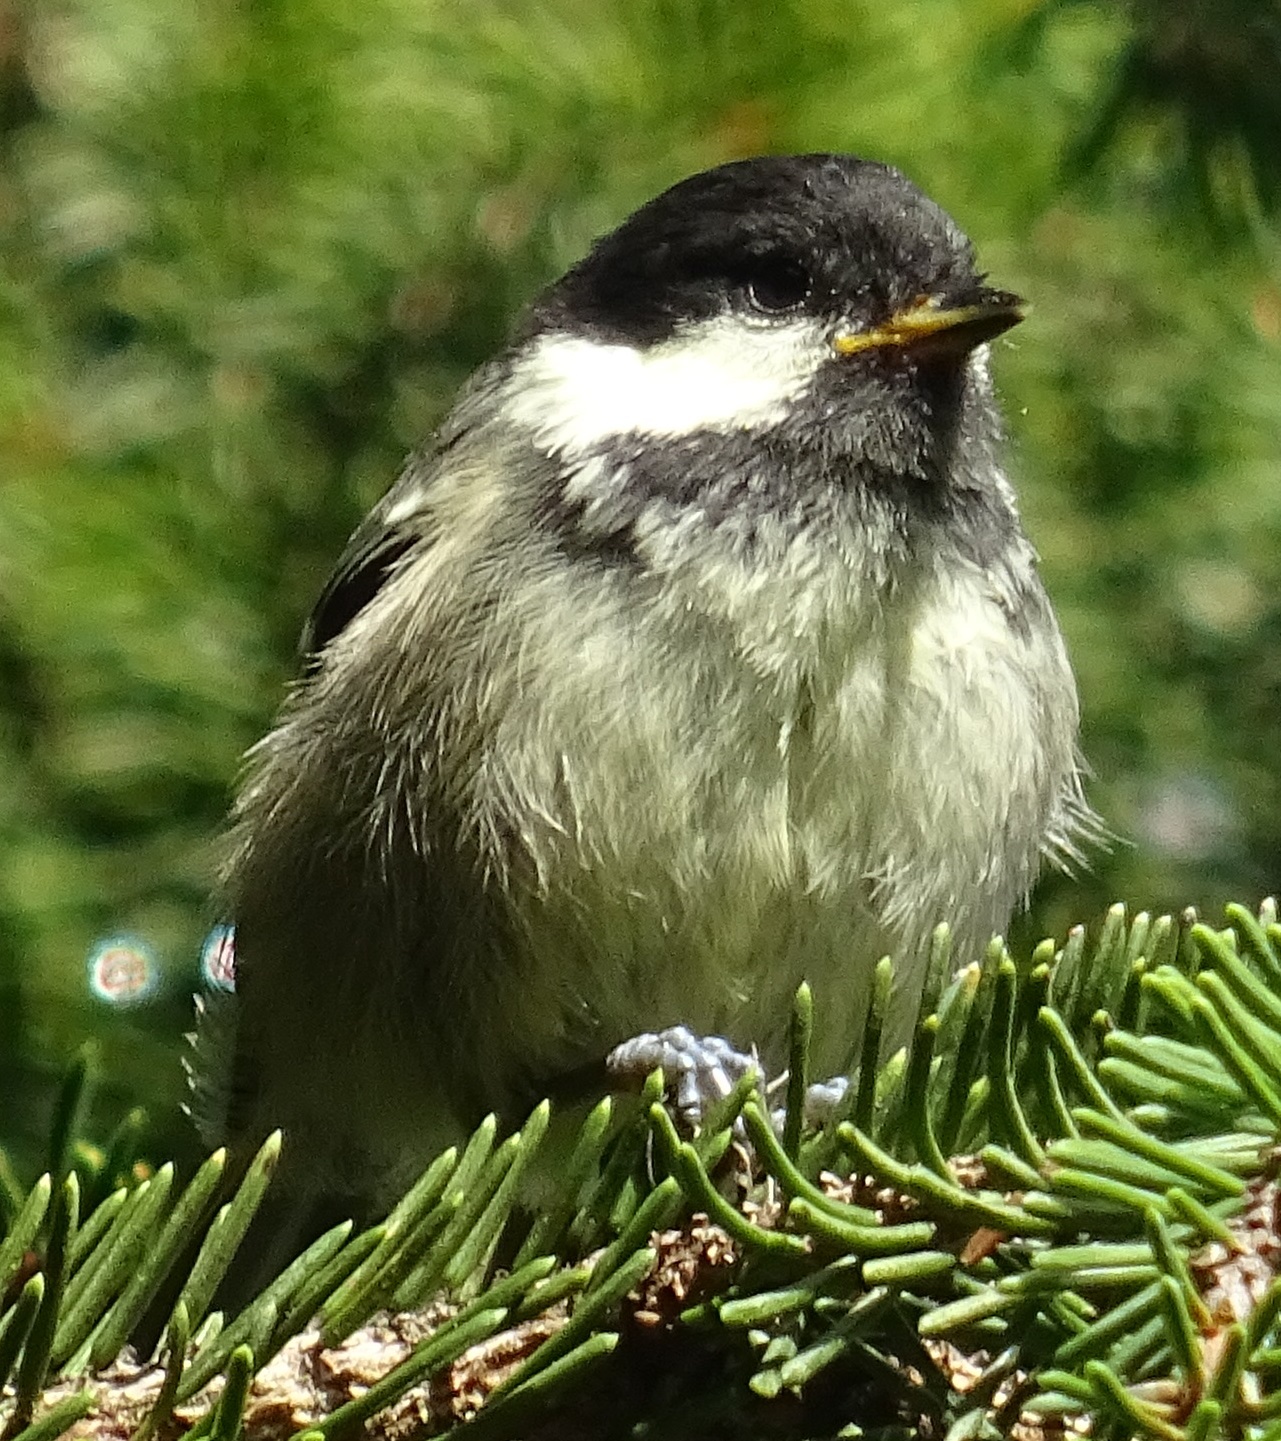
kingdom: Animalia
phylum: Chordata
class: Aves
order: Passeriformes
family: Paridae
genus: Periparus
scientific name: Periparus ater
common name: Coal tit
